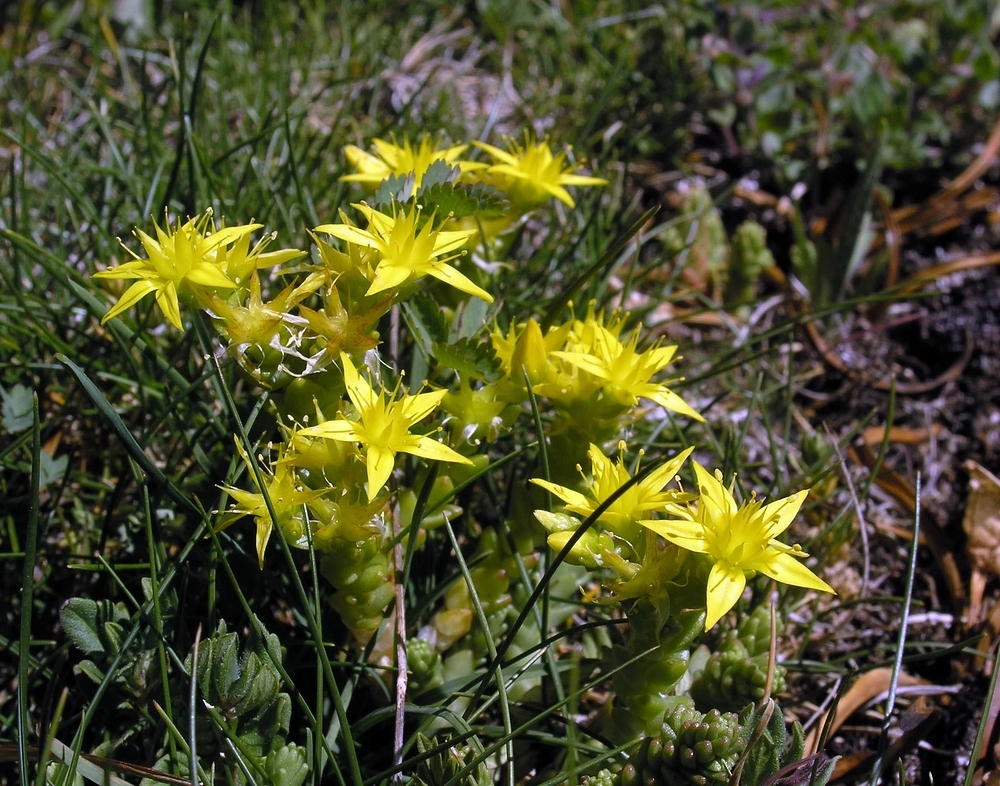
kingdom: Plantae
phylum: Tracheophyta
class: Magnoliopsida
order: Saxifragales
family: Crassulaceae
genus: Sedum
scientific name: Sedum acre
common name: Biting stonecrop
